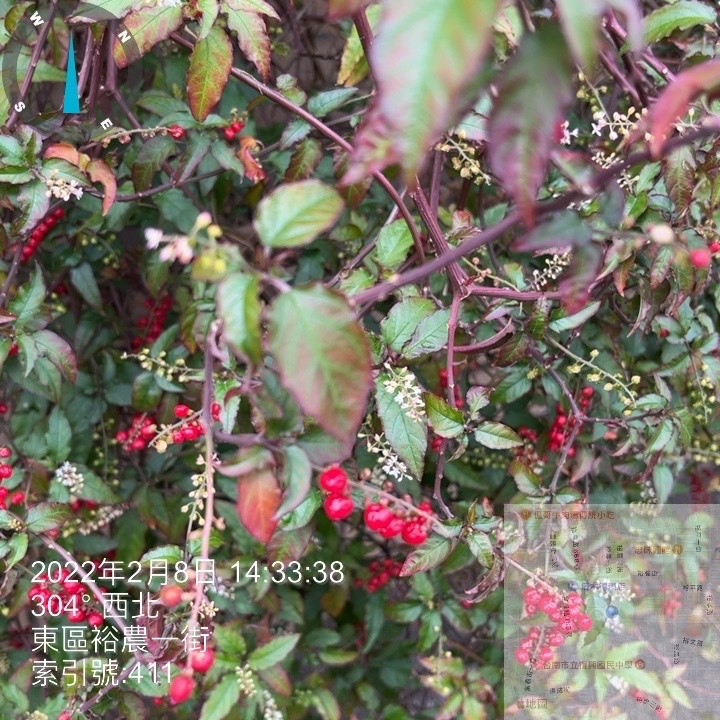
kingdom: Plantae
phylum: Tracheophyta
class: Magnoliopsida
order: Caryophyllales
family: Phytolaccaceae
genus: Rivina
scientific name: Rivina humilis
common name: Rougeplant
